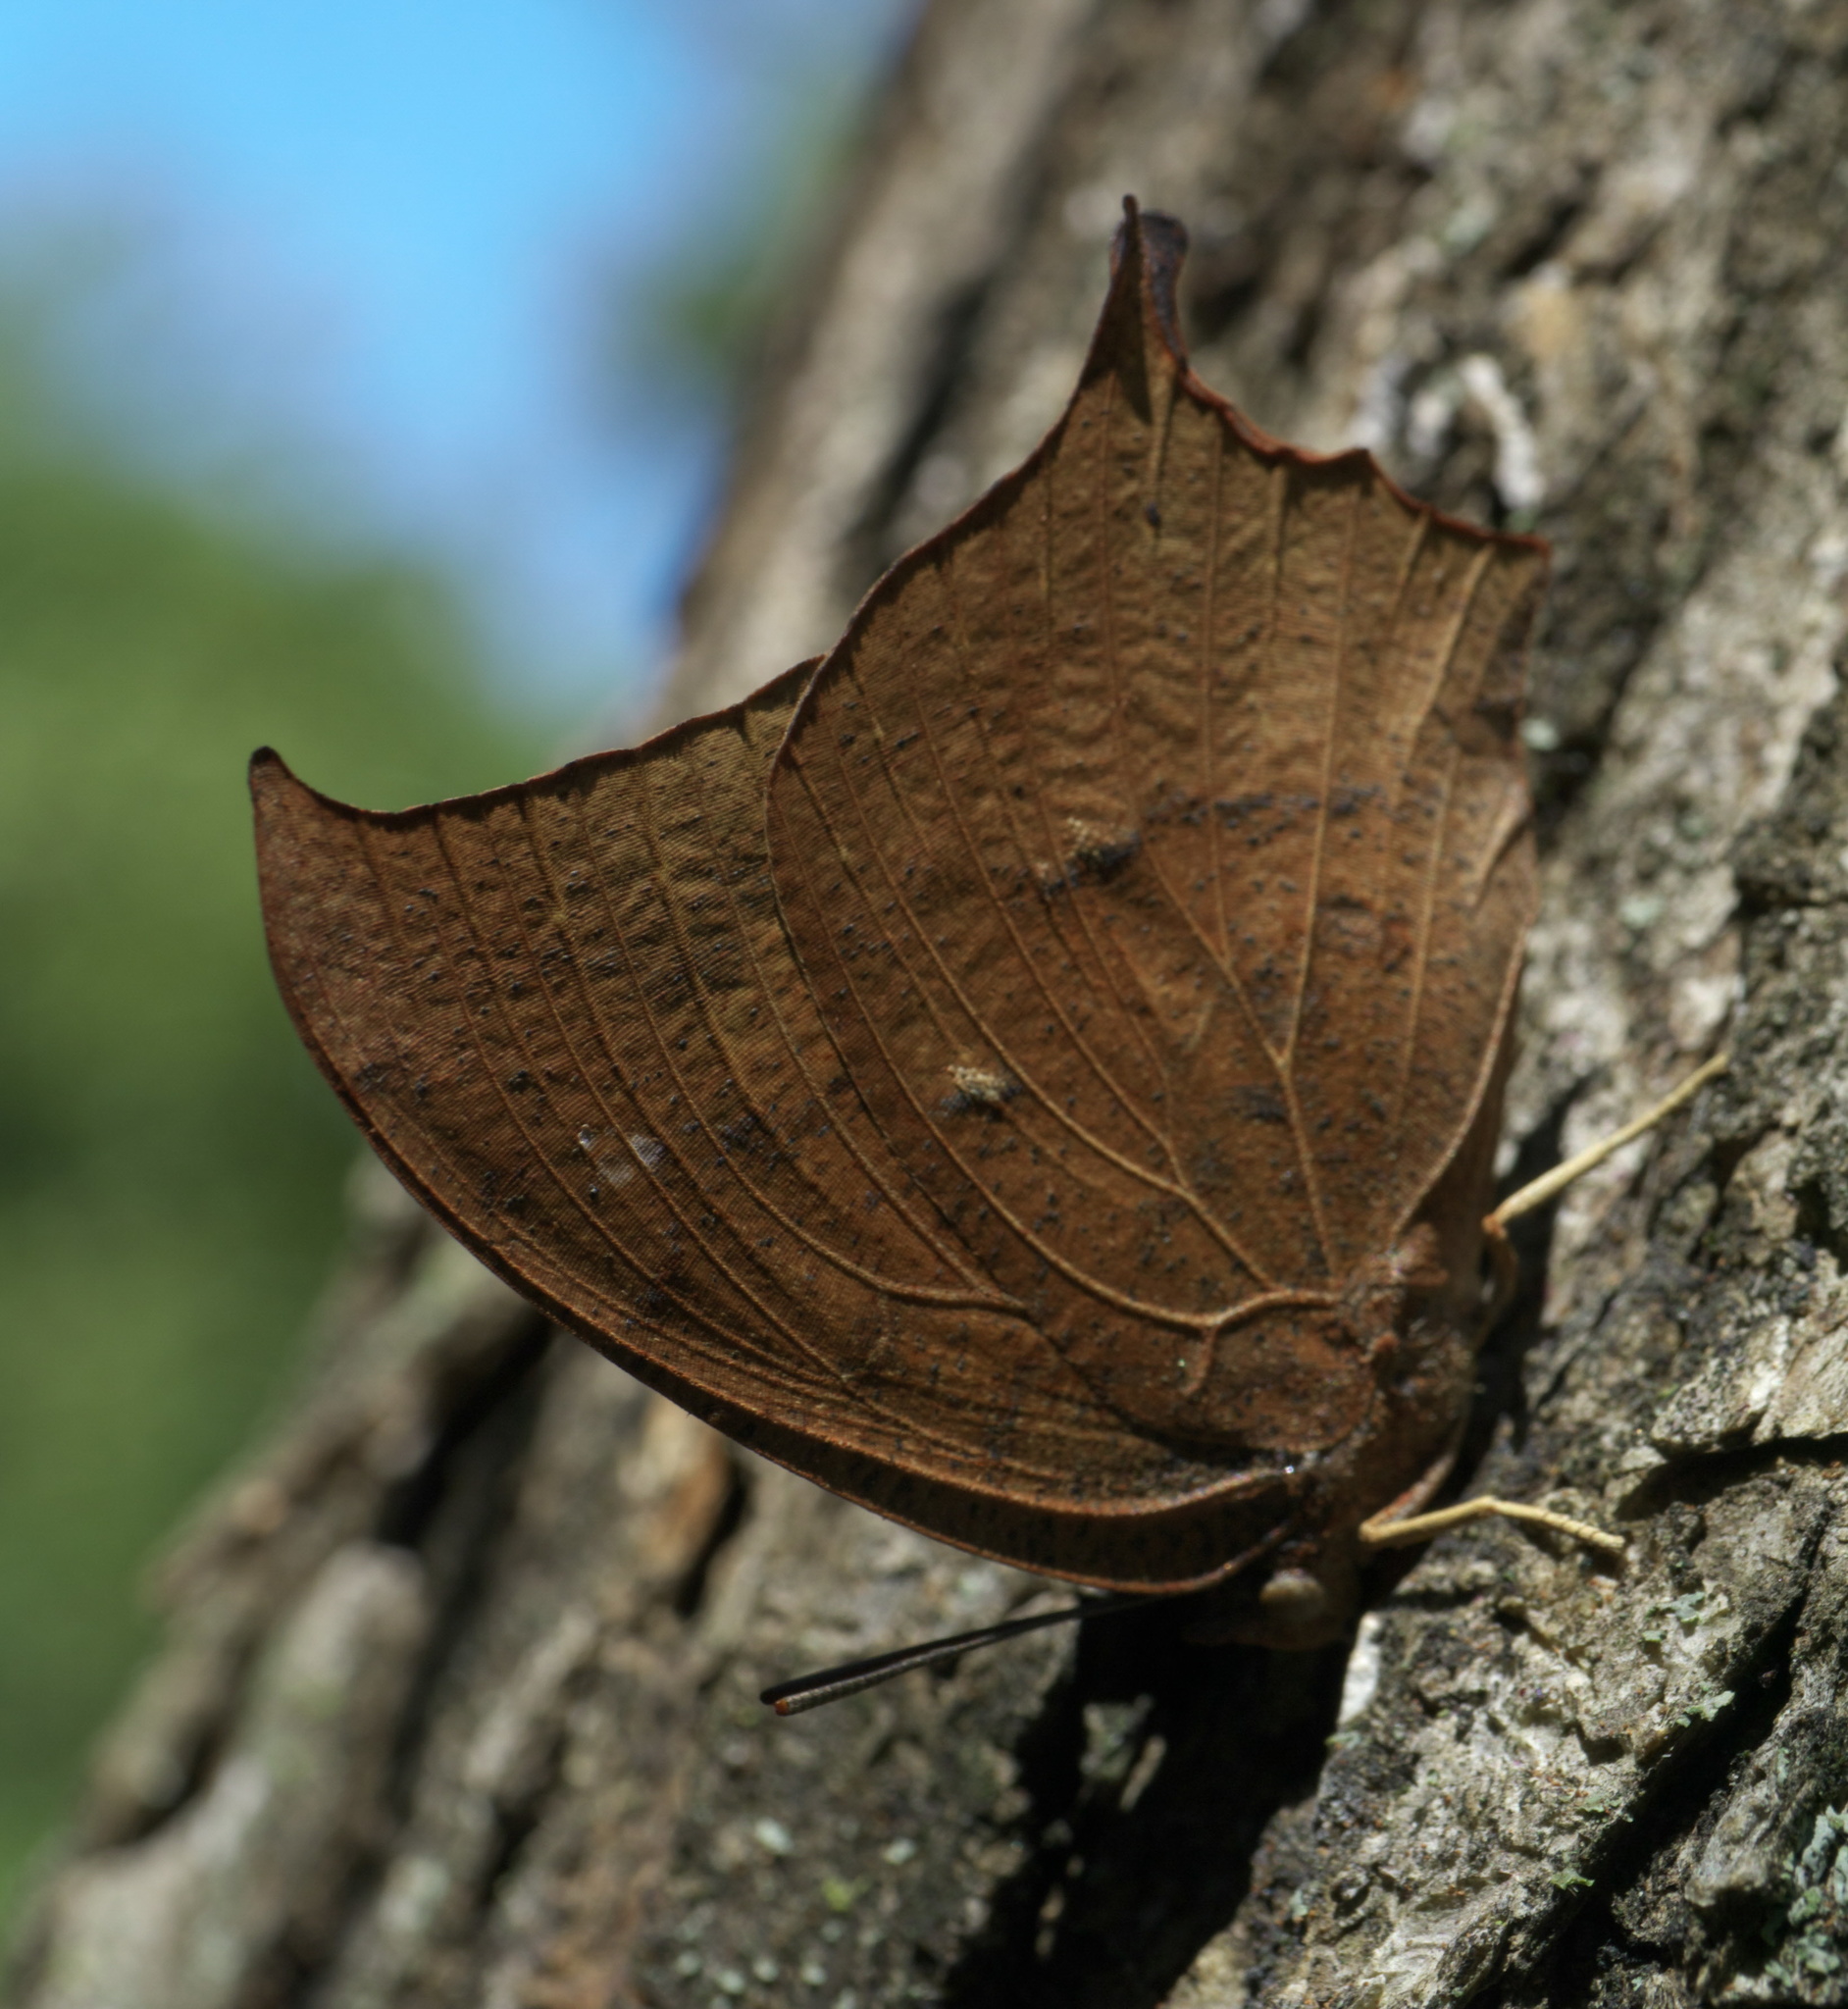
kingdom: Animalia
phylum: Arthropoda
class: Insecta
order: Lepidoptera
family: Nymphalidae
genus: Anaea
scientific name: Anaea andria
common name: Goatweed leafwing
